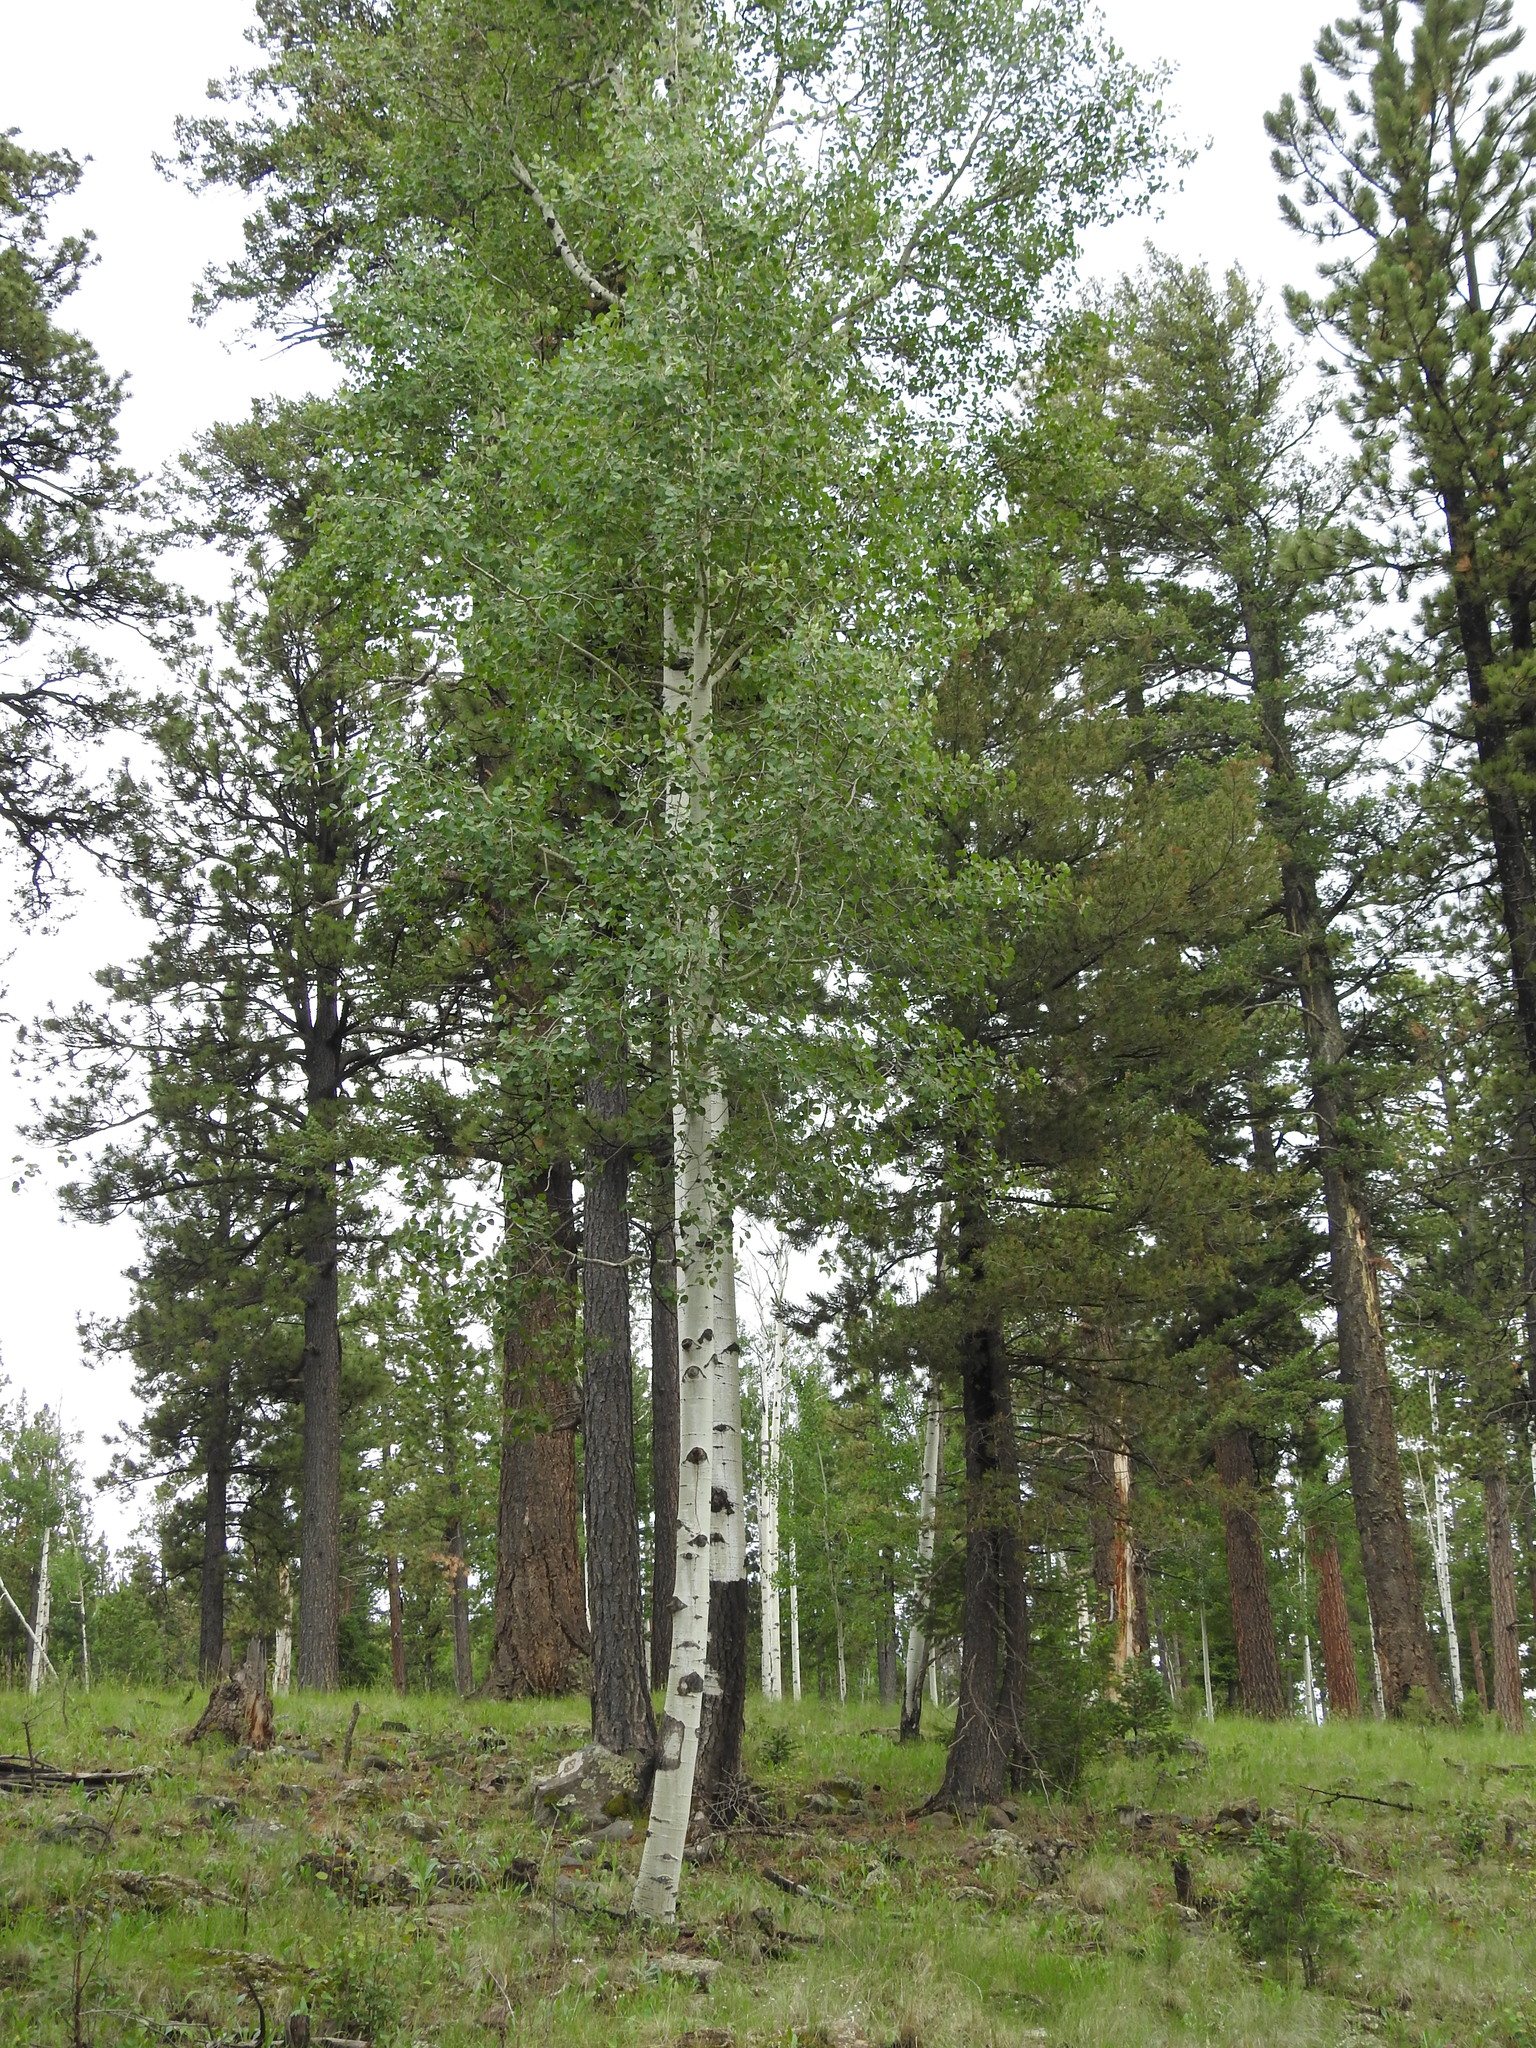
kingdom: Plantae
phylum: Tracheophyta
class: Magnoliopsida
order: Malpighiales
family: Salicaceae
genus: Populus
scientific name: Populus tremuloides
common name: Quaking aspen
